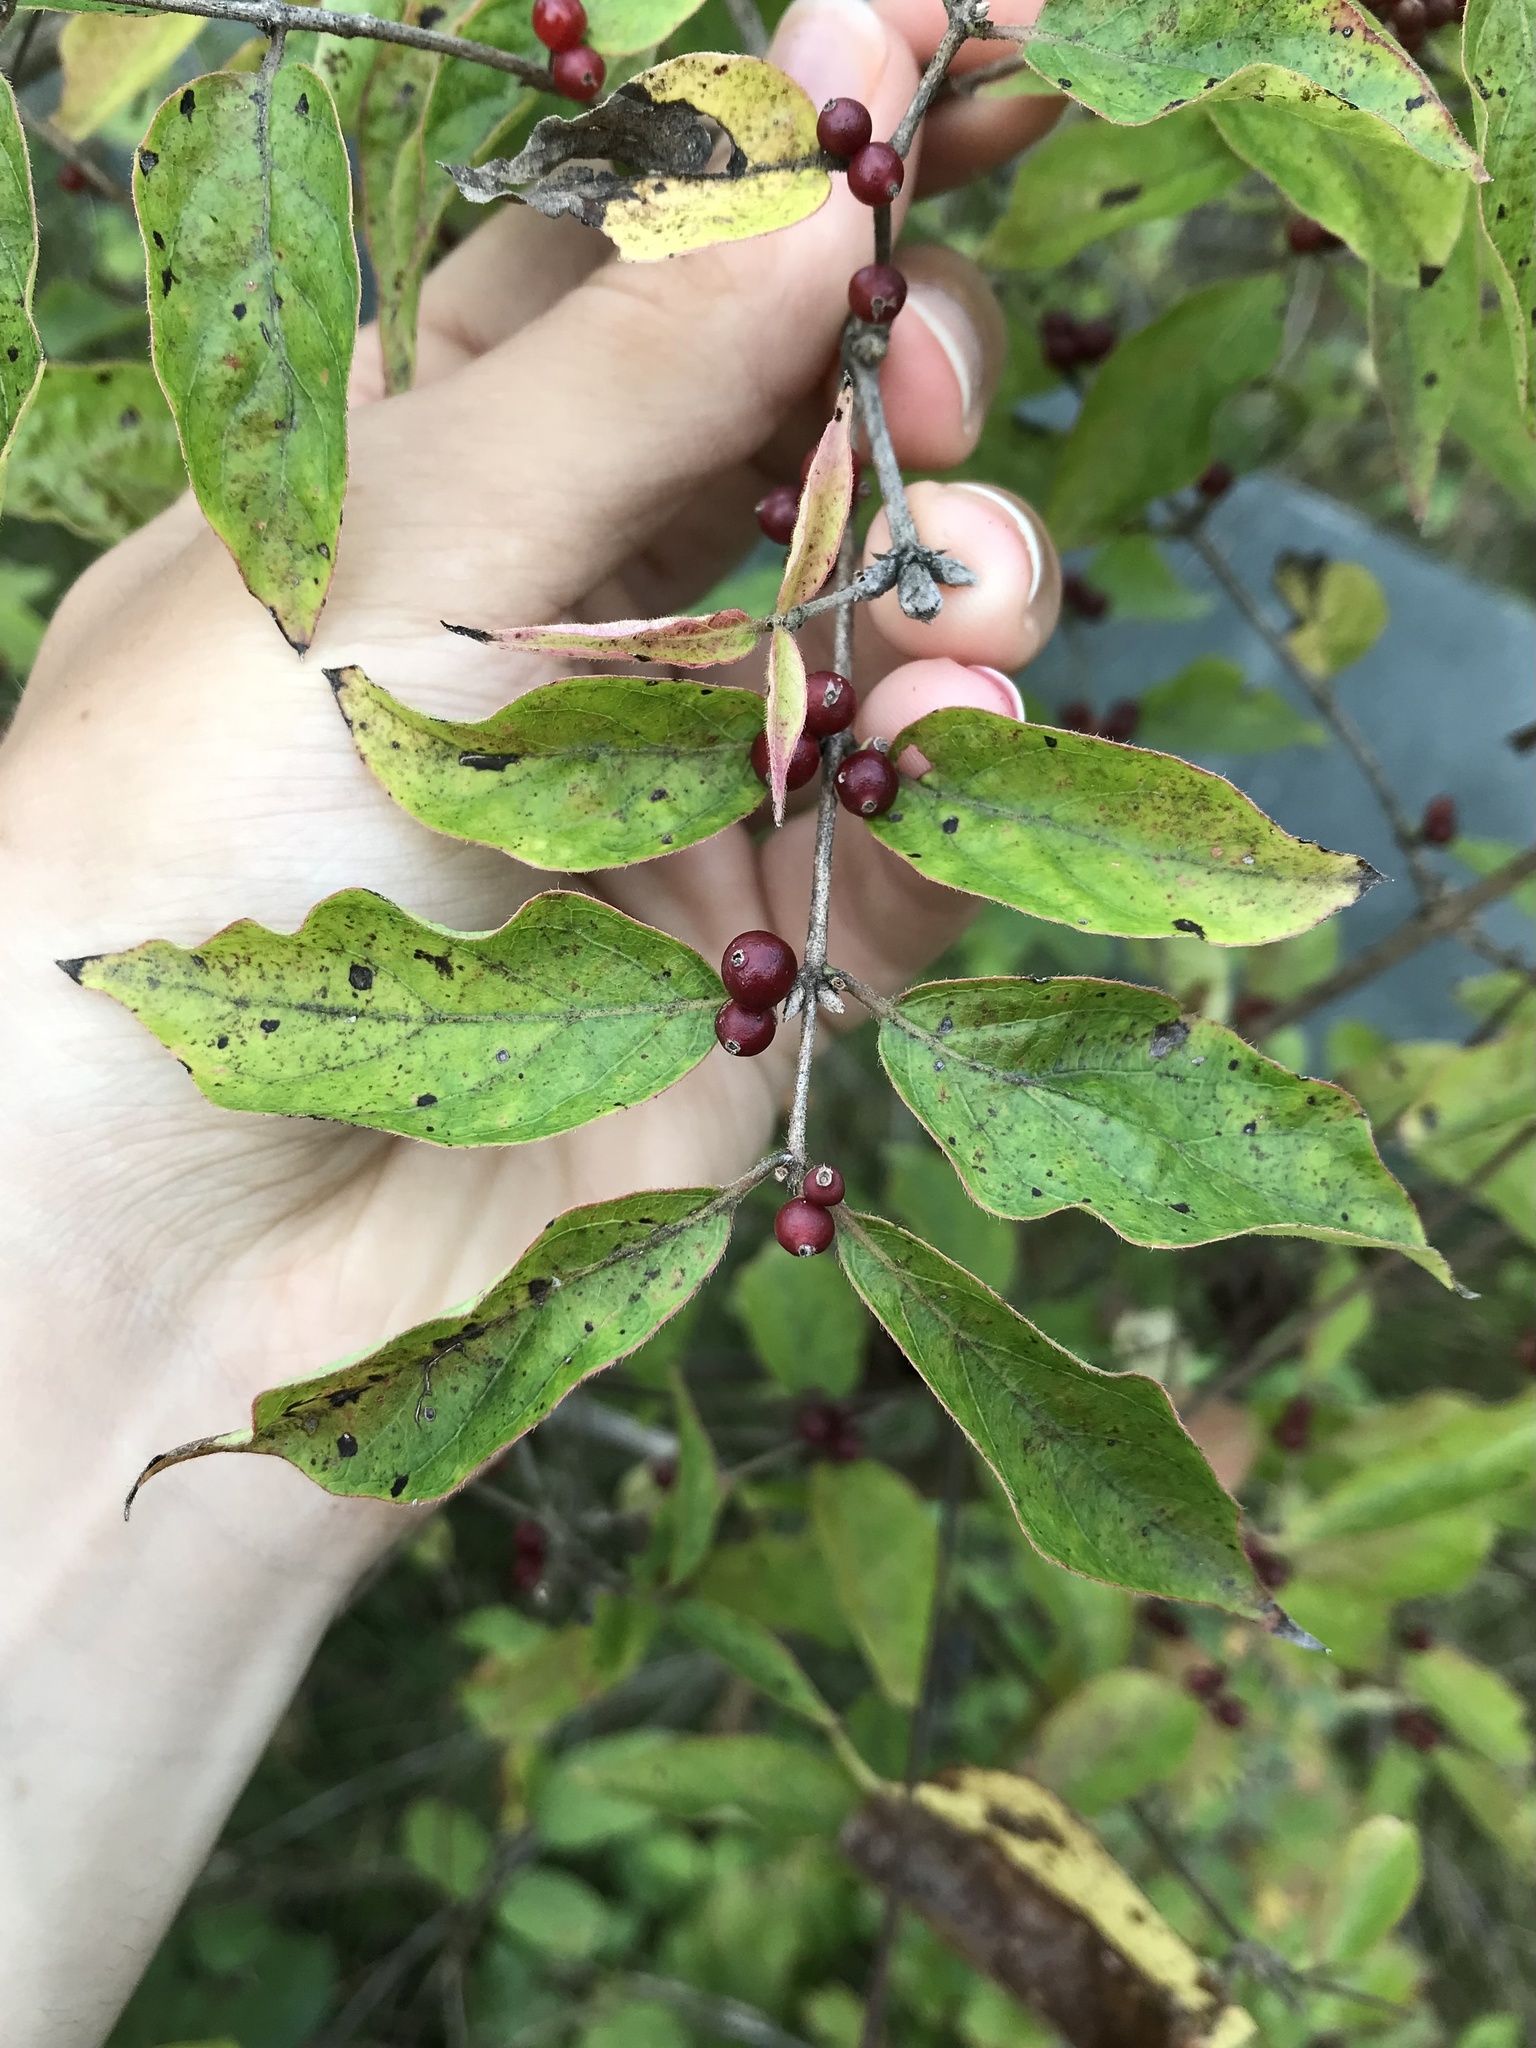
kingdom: Plantae
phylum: Tracheophyta
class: Magnoliopsida
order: Dipsacales
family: Caprifoliaceae
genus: Lonicera
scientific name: Lonicera maackii
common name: Amur honeysuckle
